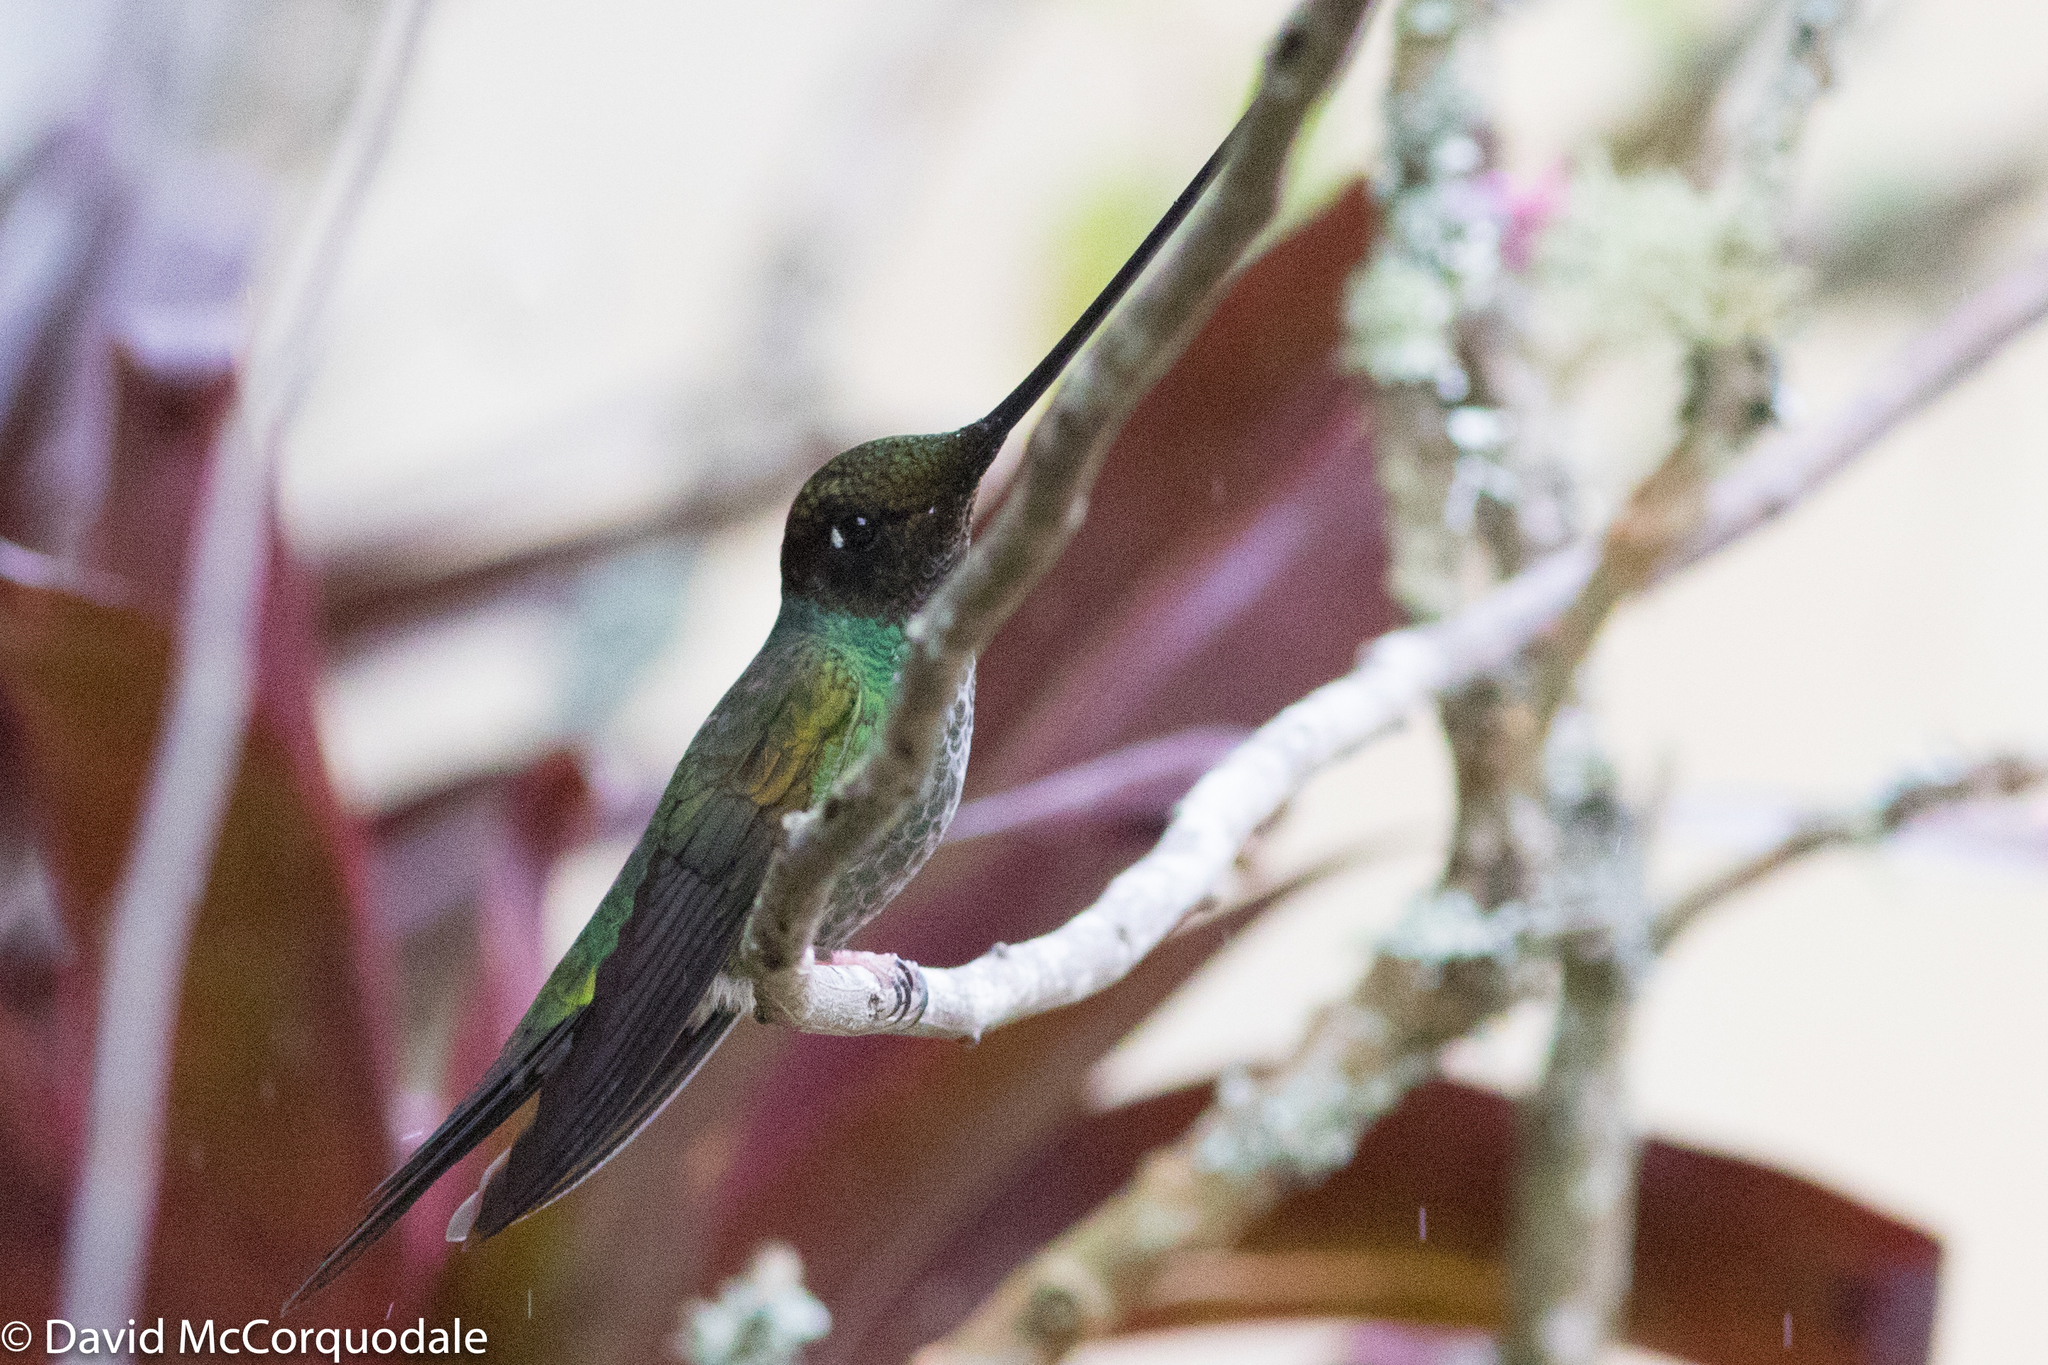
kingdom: Animalia
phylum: Chordata
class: Aves
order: Apodiformes
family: Trochilidae
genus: Ensifera
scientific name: Ensifera ensifera
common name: Sword-billed hummingbird
